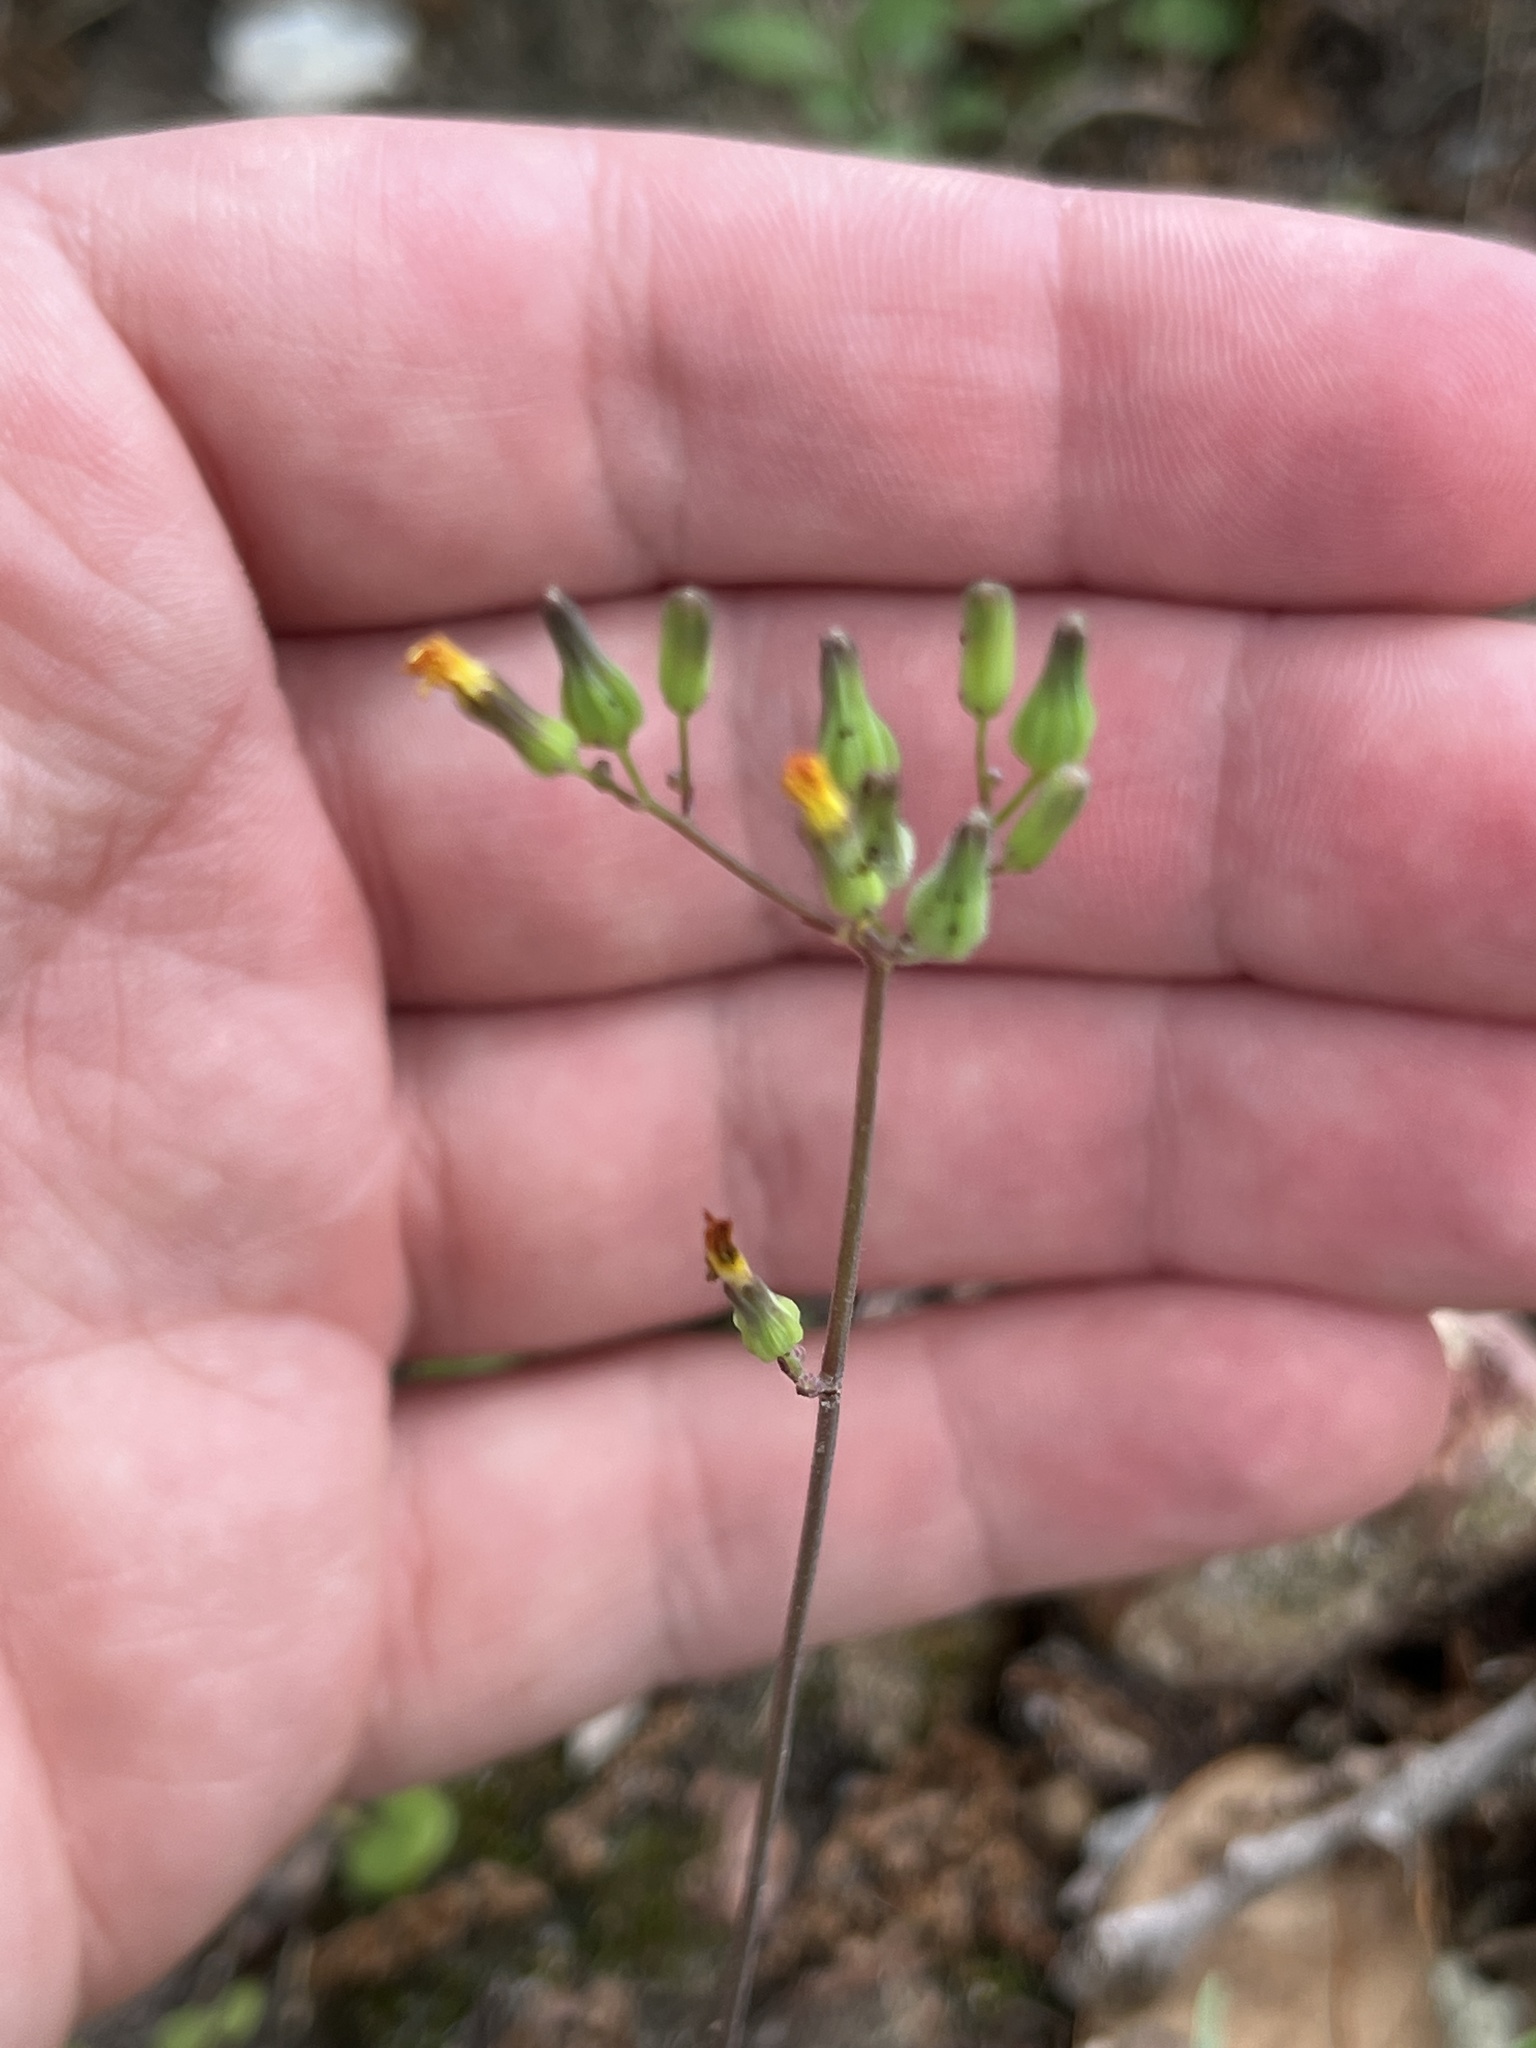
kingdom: Plantae
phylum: Tracheophyta
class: Magnoliopsida
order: Asterales
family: Asteraceae
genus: Youngia
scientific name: Youngia japonica
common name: Oriental false hawksbeard
